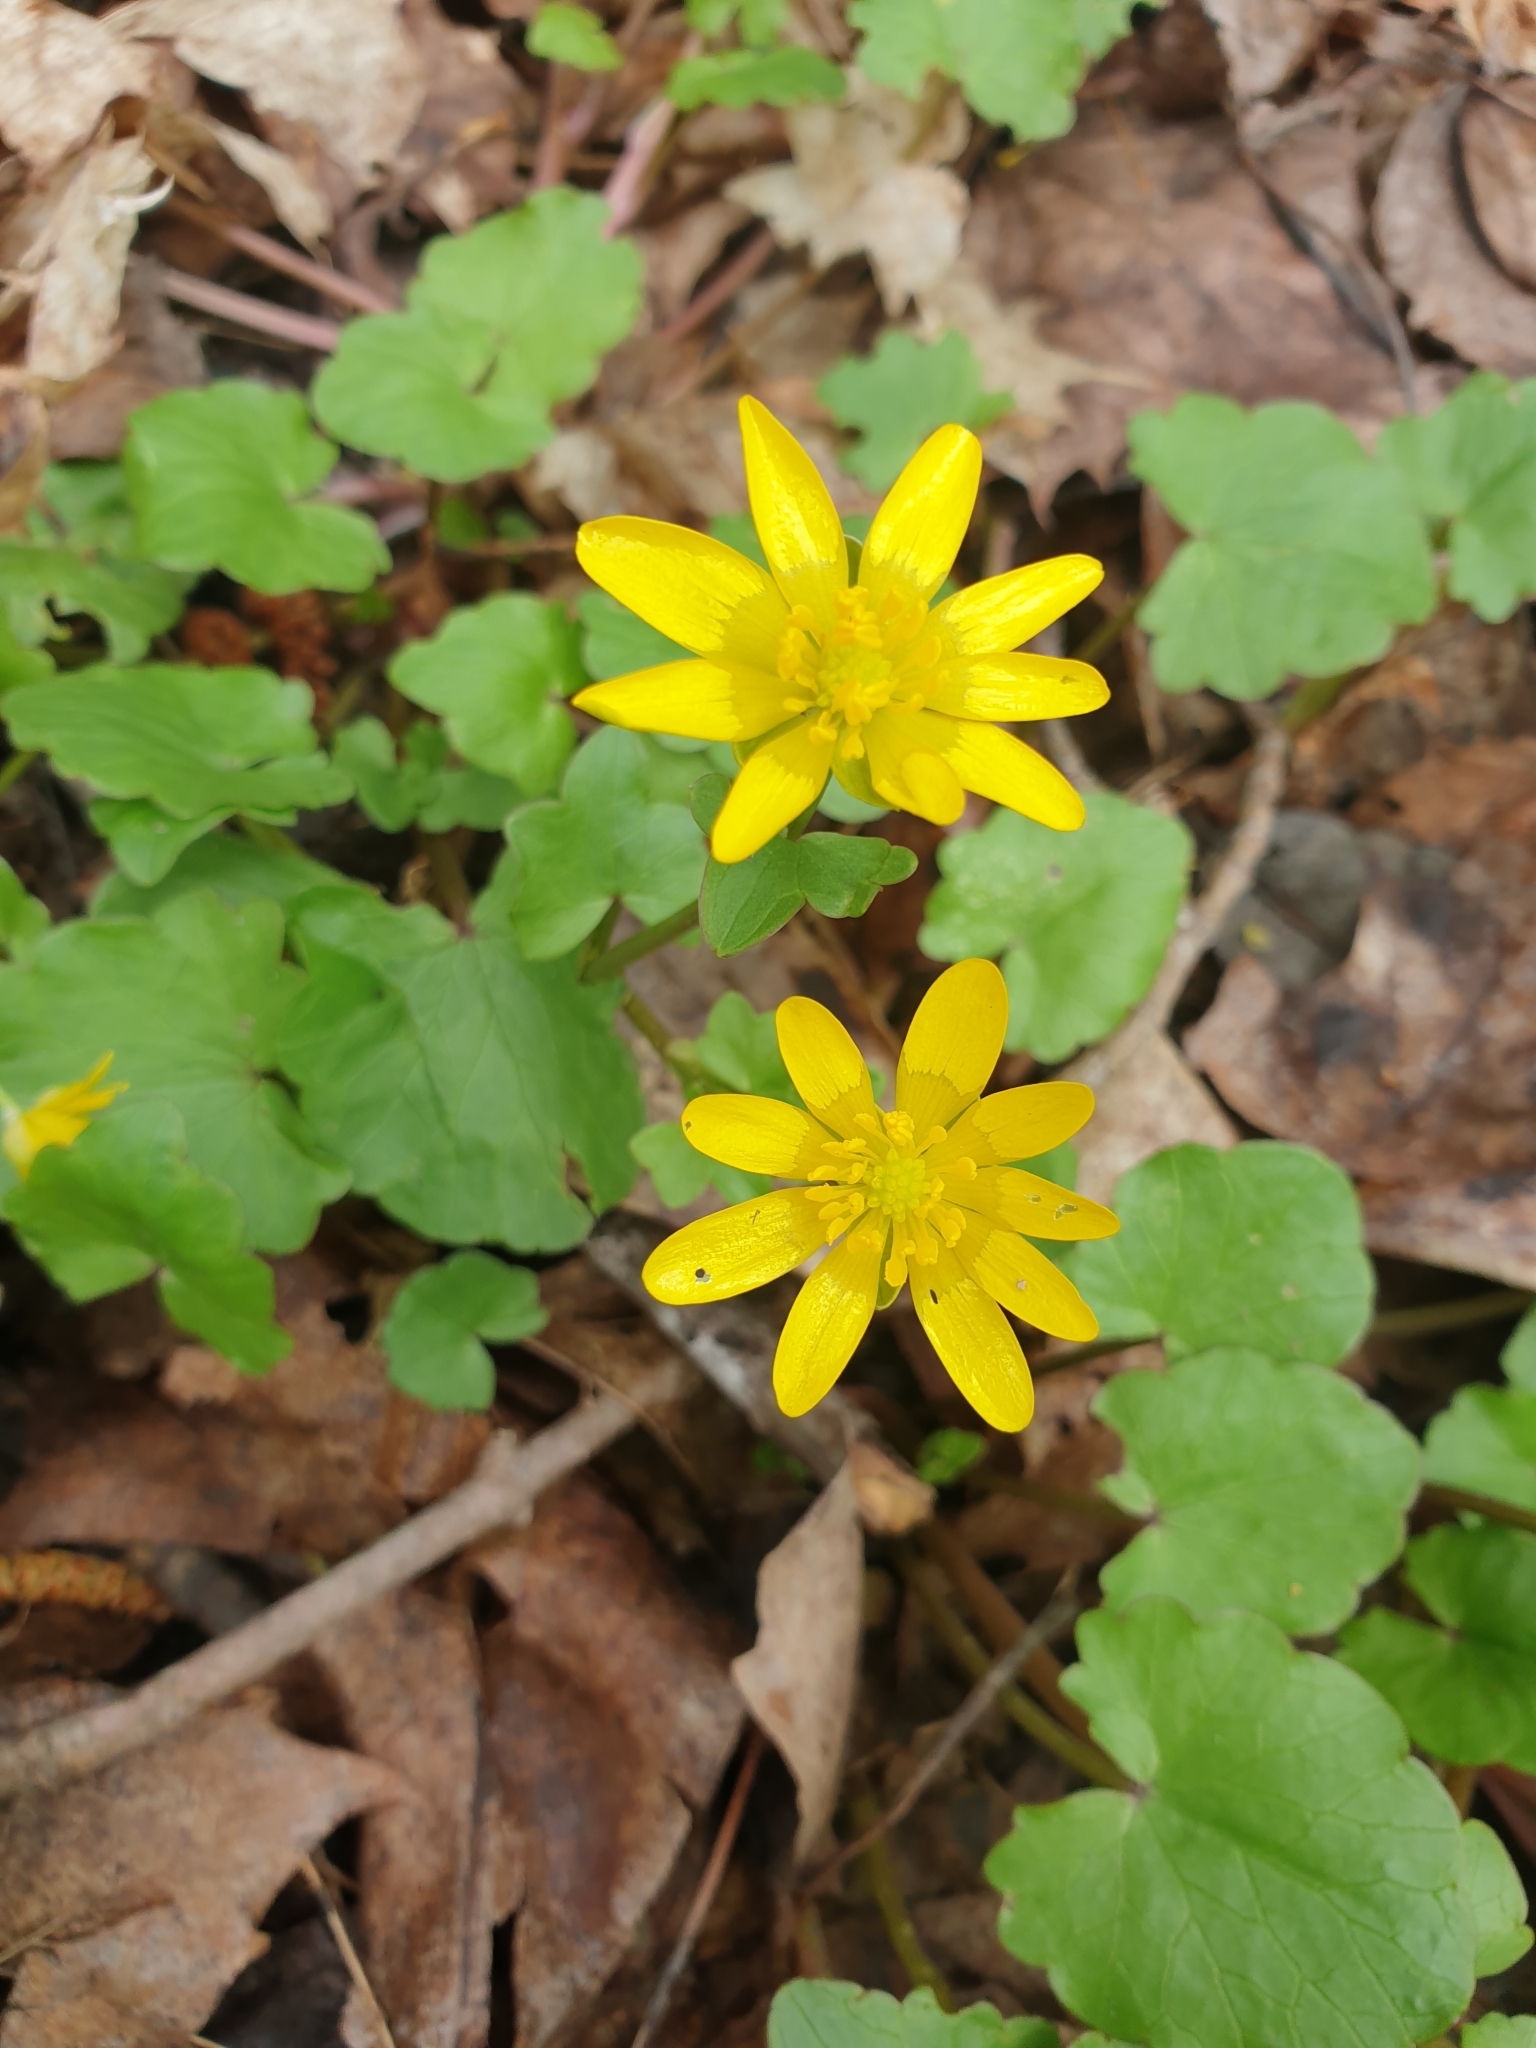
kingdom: Plantae
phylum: Tracheophyta
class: Magnoliopsida
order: Ranunculales
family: Ranunculaceae
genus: Ficaria
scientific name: Ficaria verna
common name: Lesser celandine
